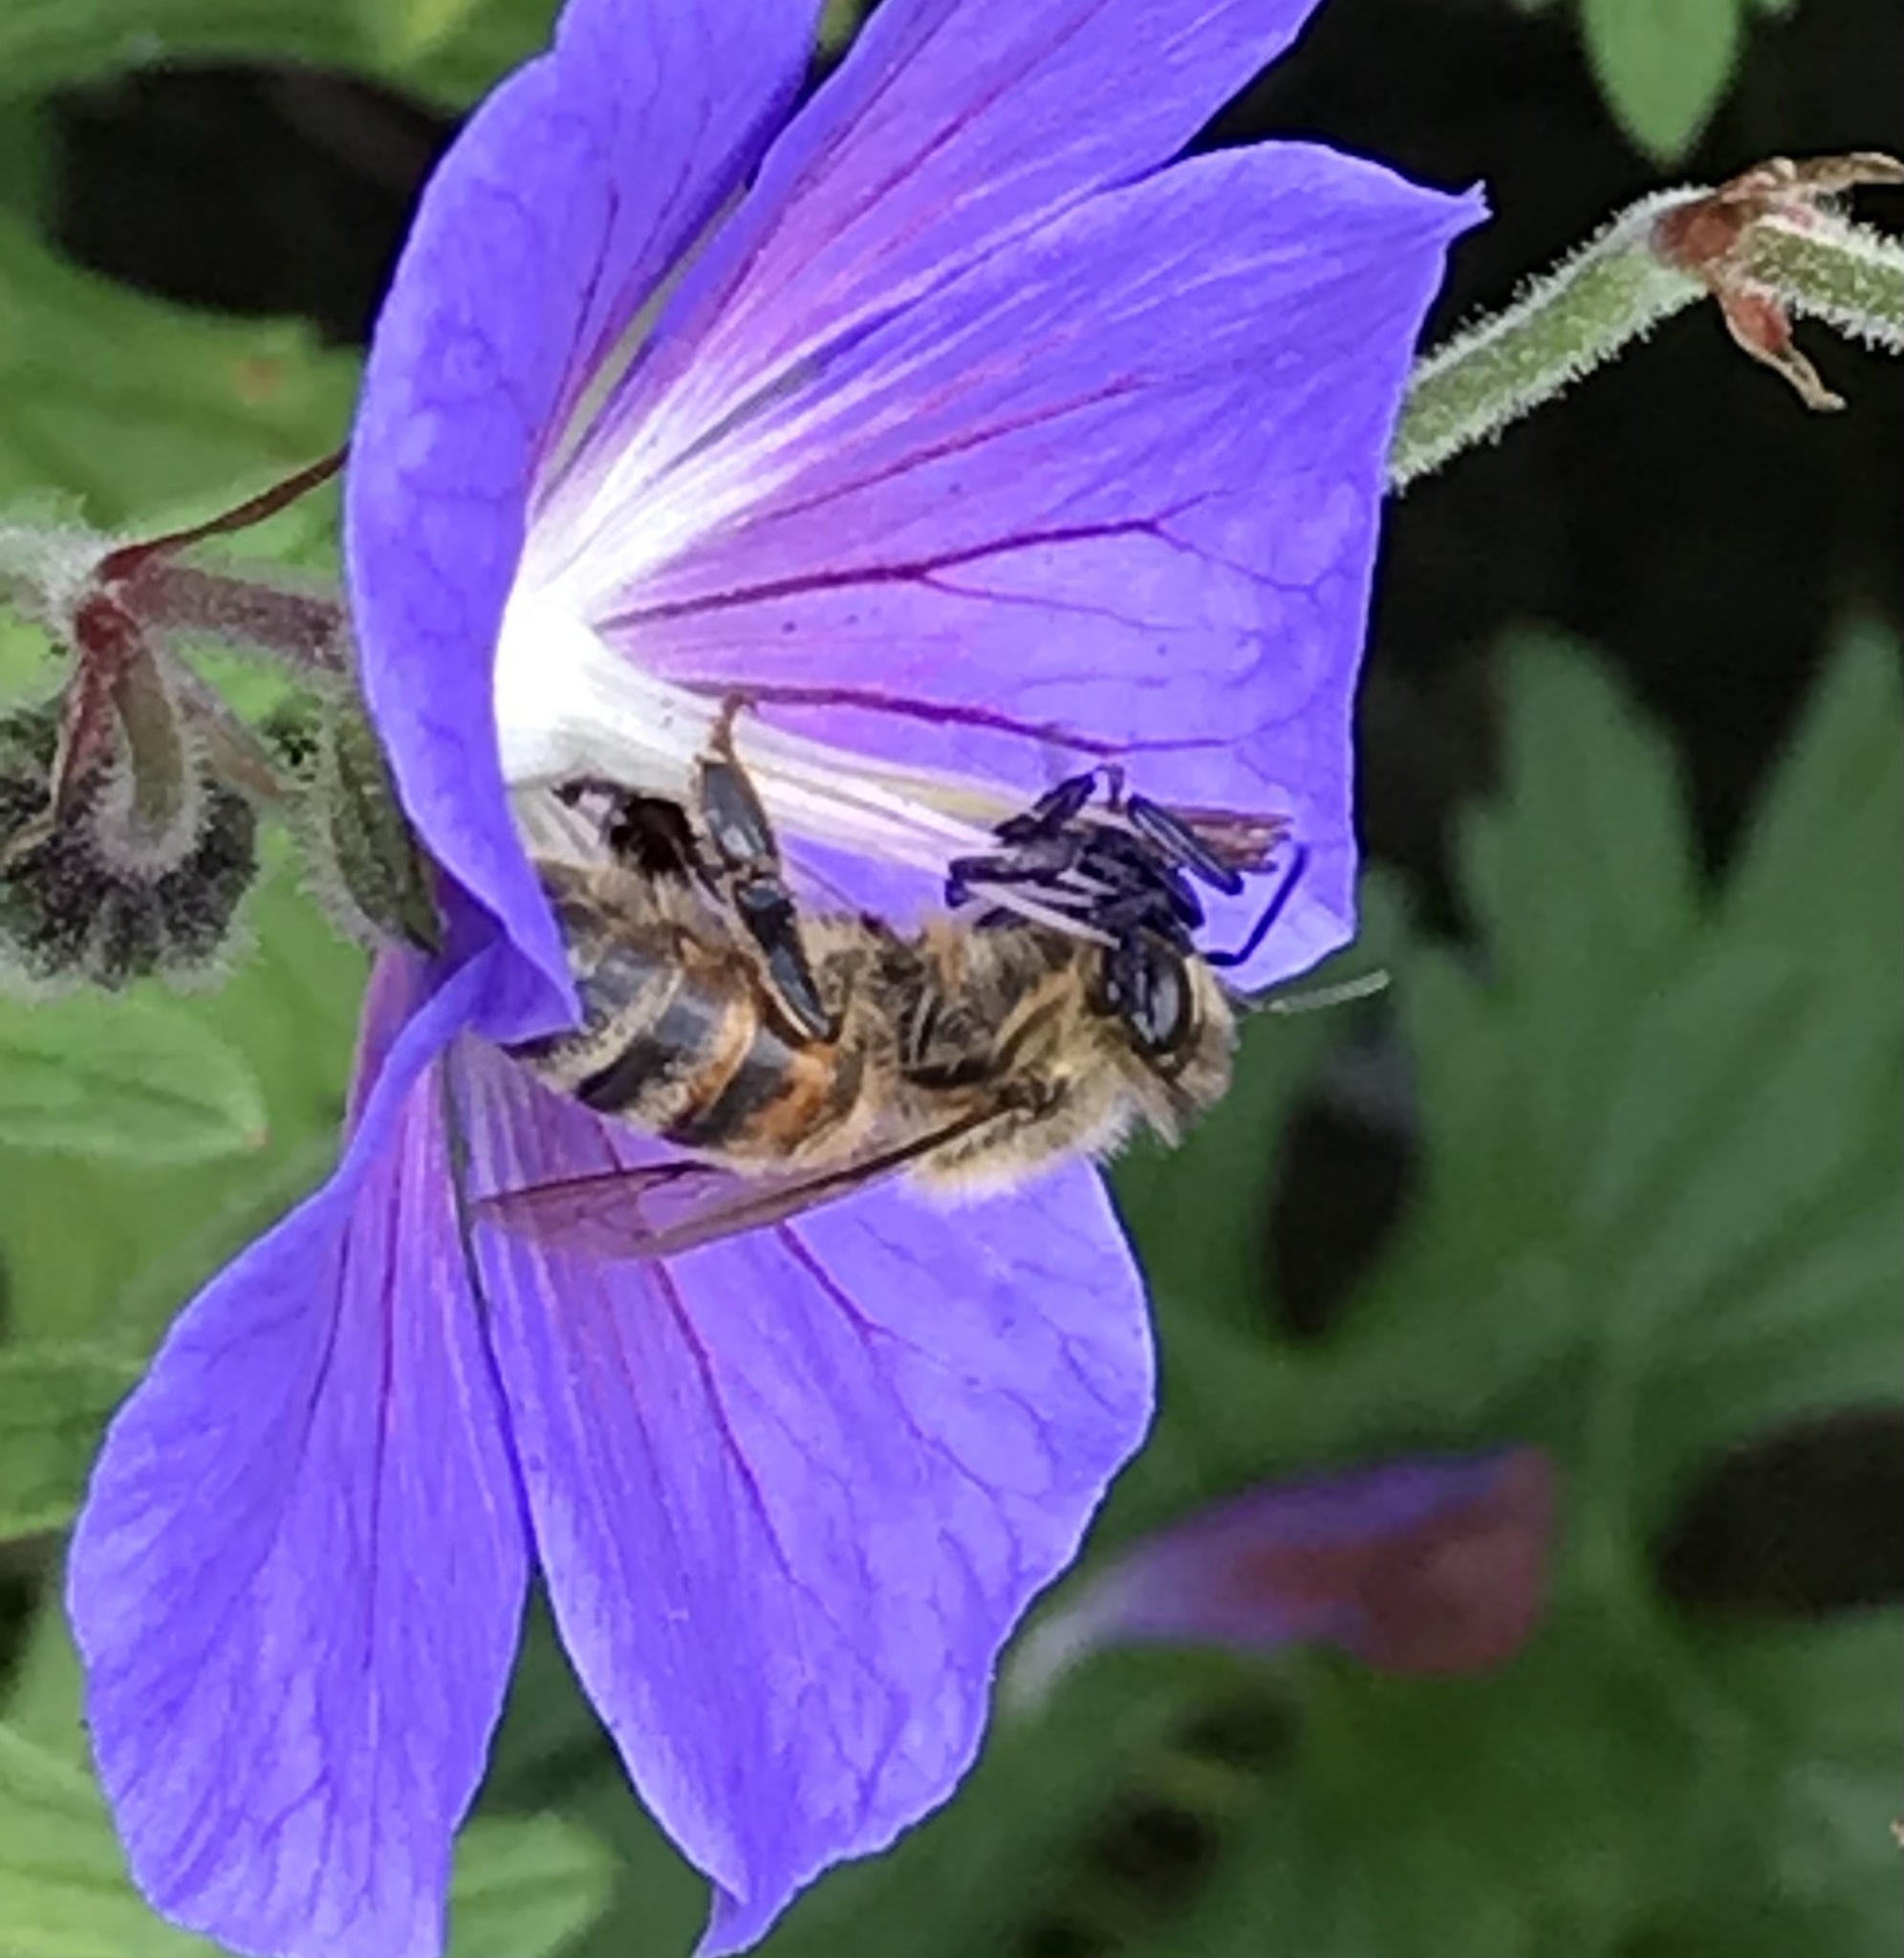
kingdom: Animalia
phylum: Arthropoda
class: Insecta
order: Hymenoptera
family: Apidae
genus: Apis
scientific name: Apis mellifera
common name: Honey bee
